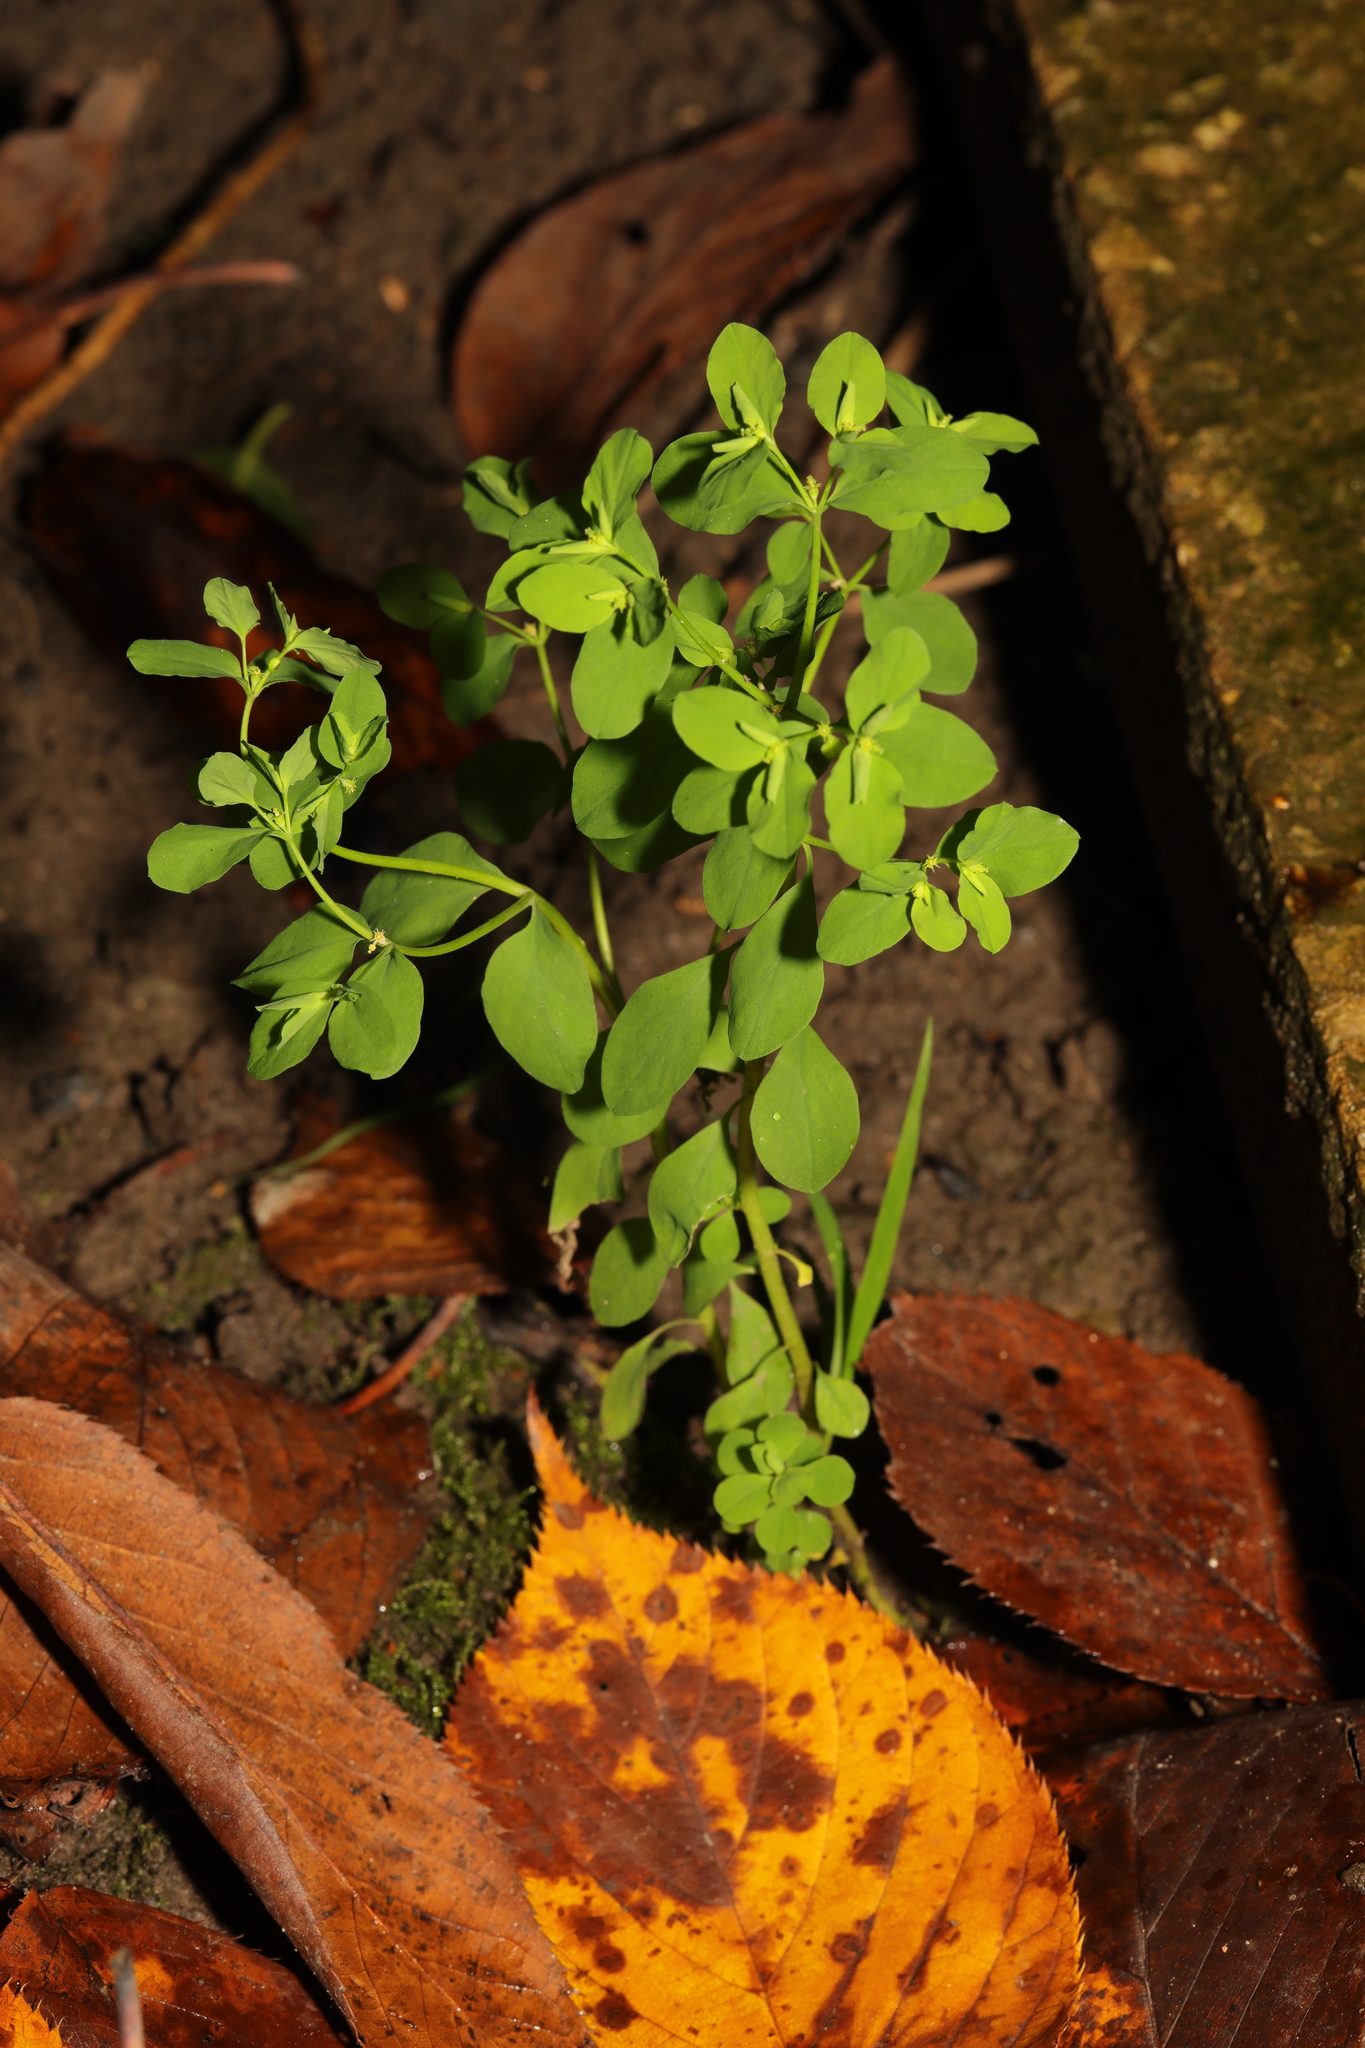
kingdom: Plantae
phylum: Tracheophyta
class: Magnoliopsida
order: Malpighiales
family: Euphorbiaceae
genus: Euphorbia
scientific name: Euphorbia peplus
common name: Petty spurge
